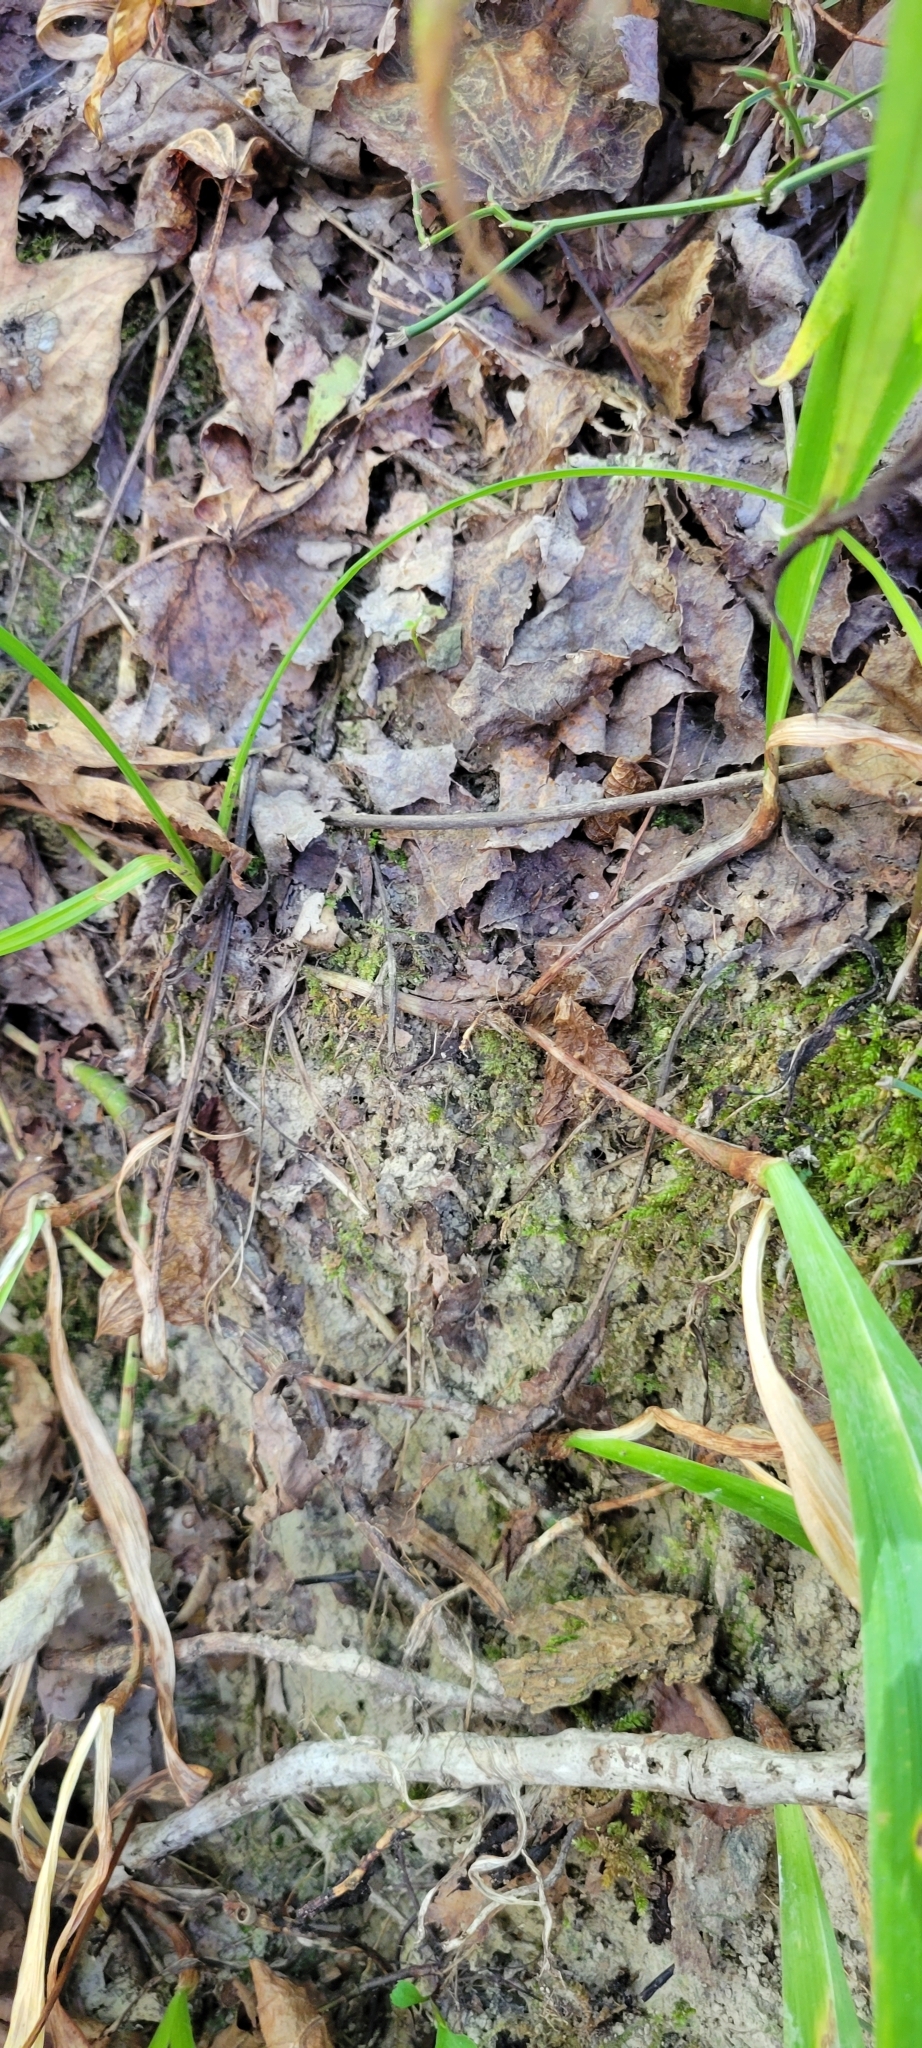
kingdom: Plantae
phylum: Tracheophyta
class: Liliopsida
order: Asparagales
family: Iridaceae
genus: Iris
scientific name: Iris cristata
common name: Crested iris
